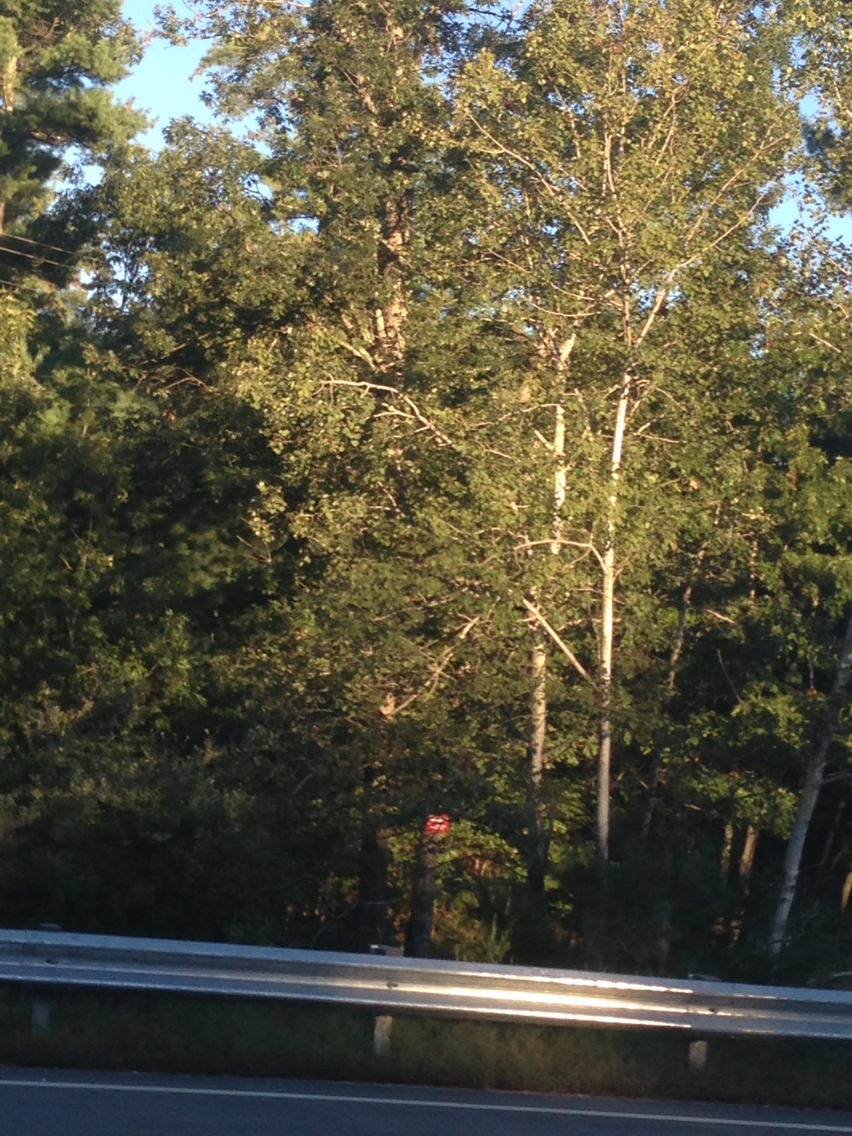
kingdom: Plantae
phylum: Tracheophyta
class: Magnoliopsida
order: Malpighiales
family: Salicaceae
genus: Populus
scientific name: Populus tremuloides
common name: Quaking aspen
